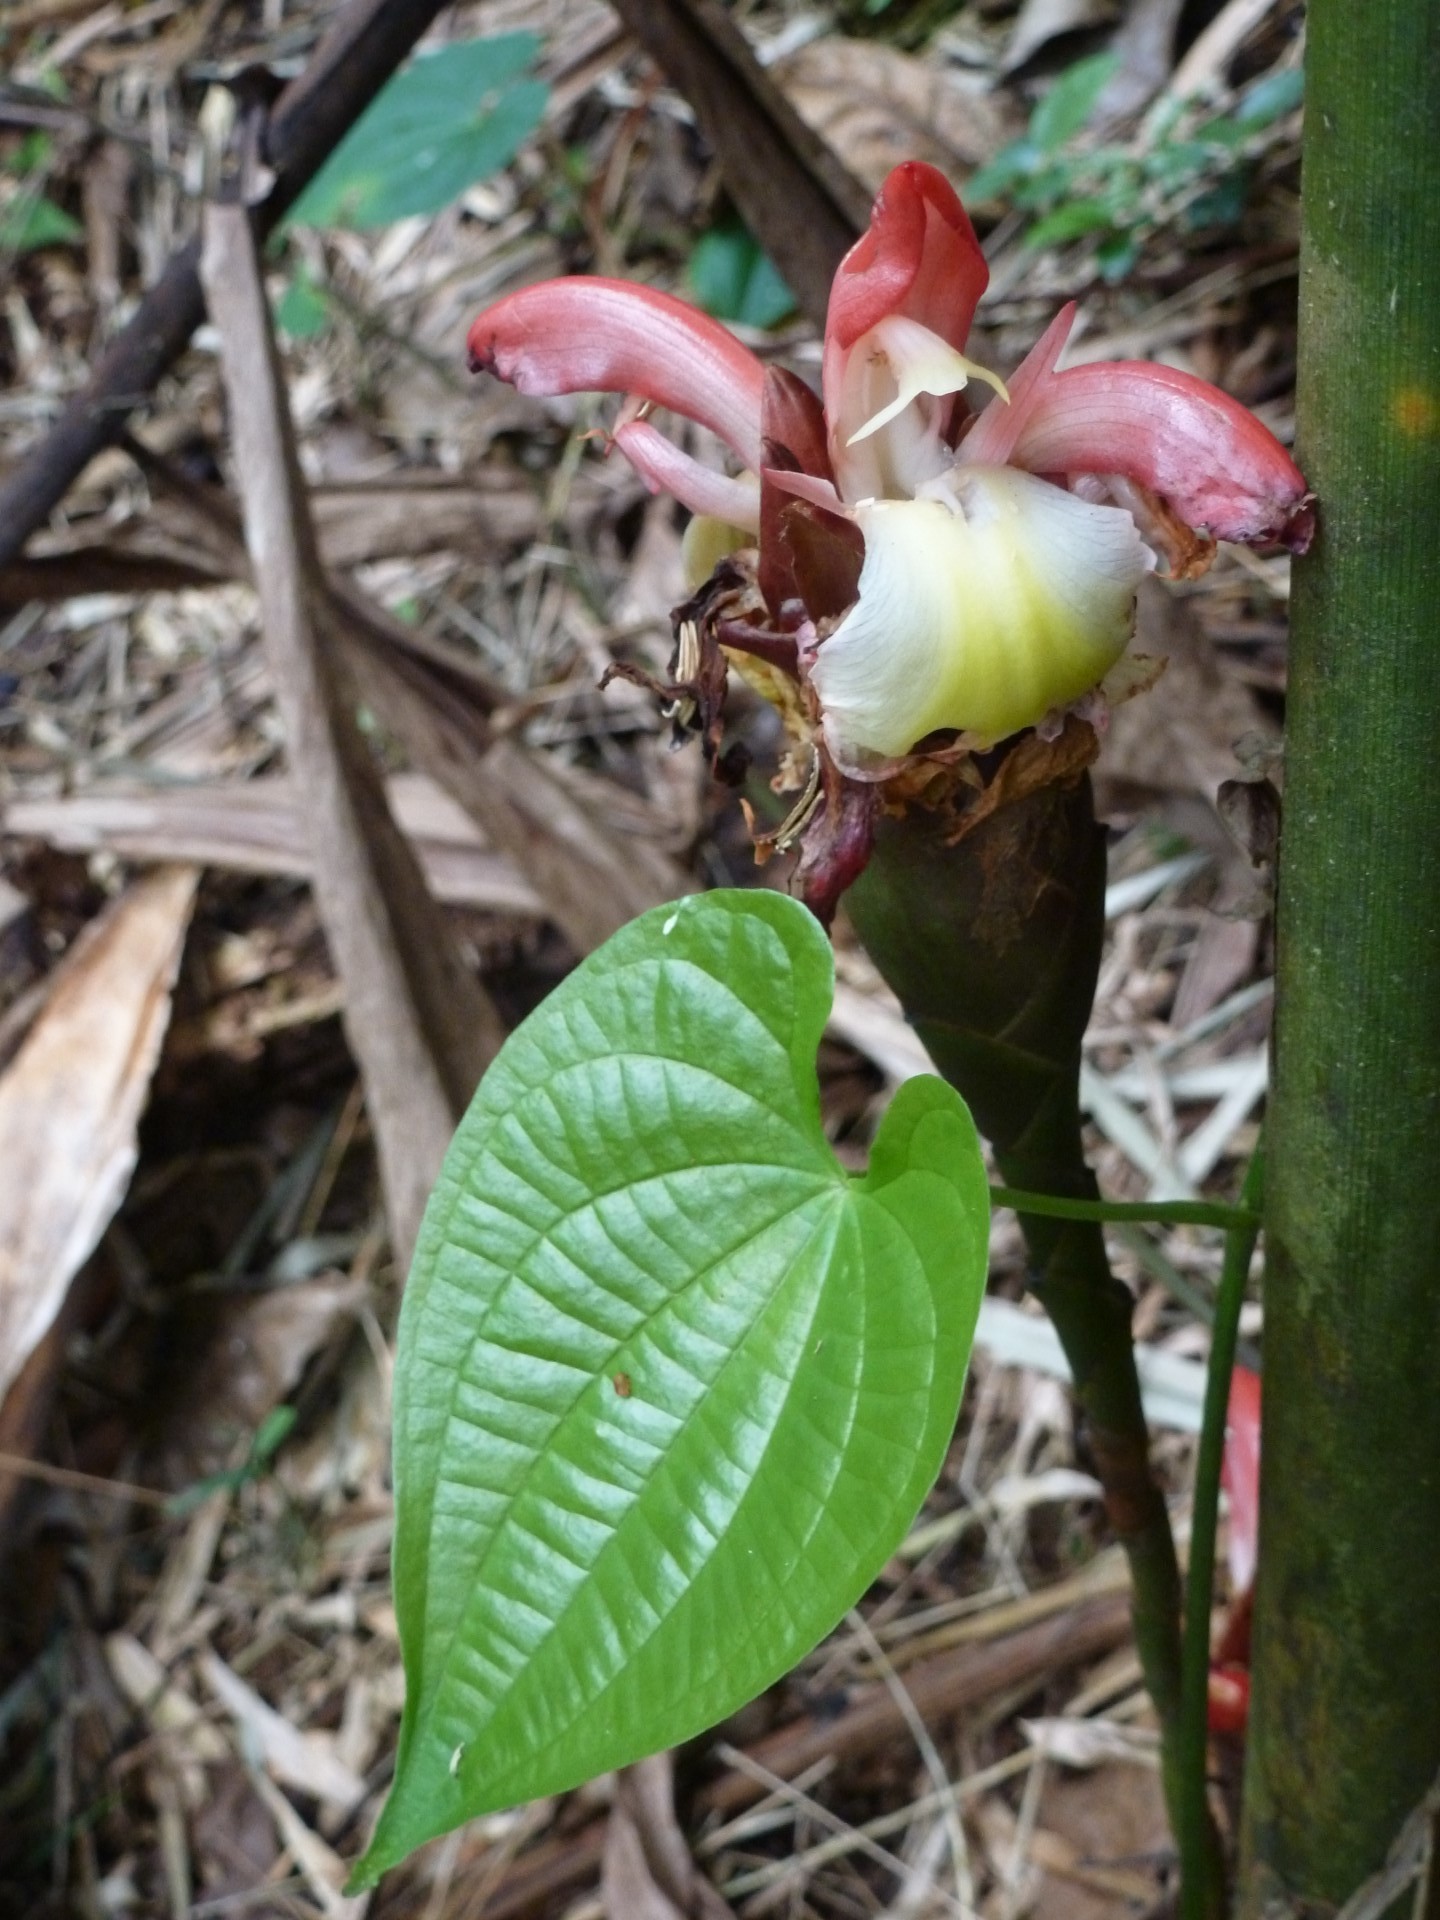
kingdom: Plantae
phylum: Tracheophyta
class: Liliopsida
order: Zingiberales
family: Zingiberaceae
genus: Aframomum
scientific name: Aframomum angustifolium
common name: Guinea grains
